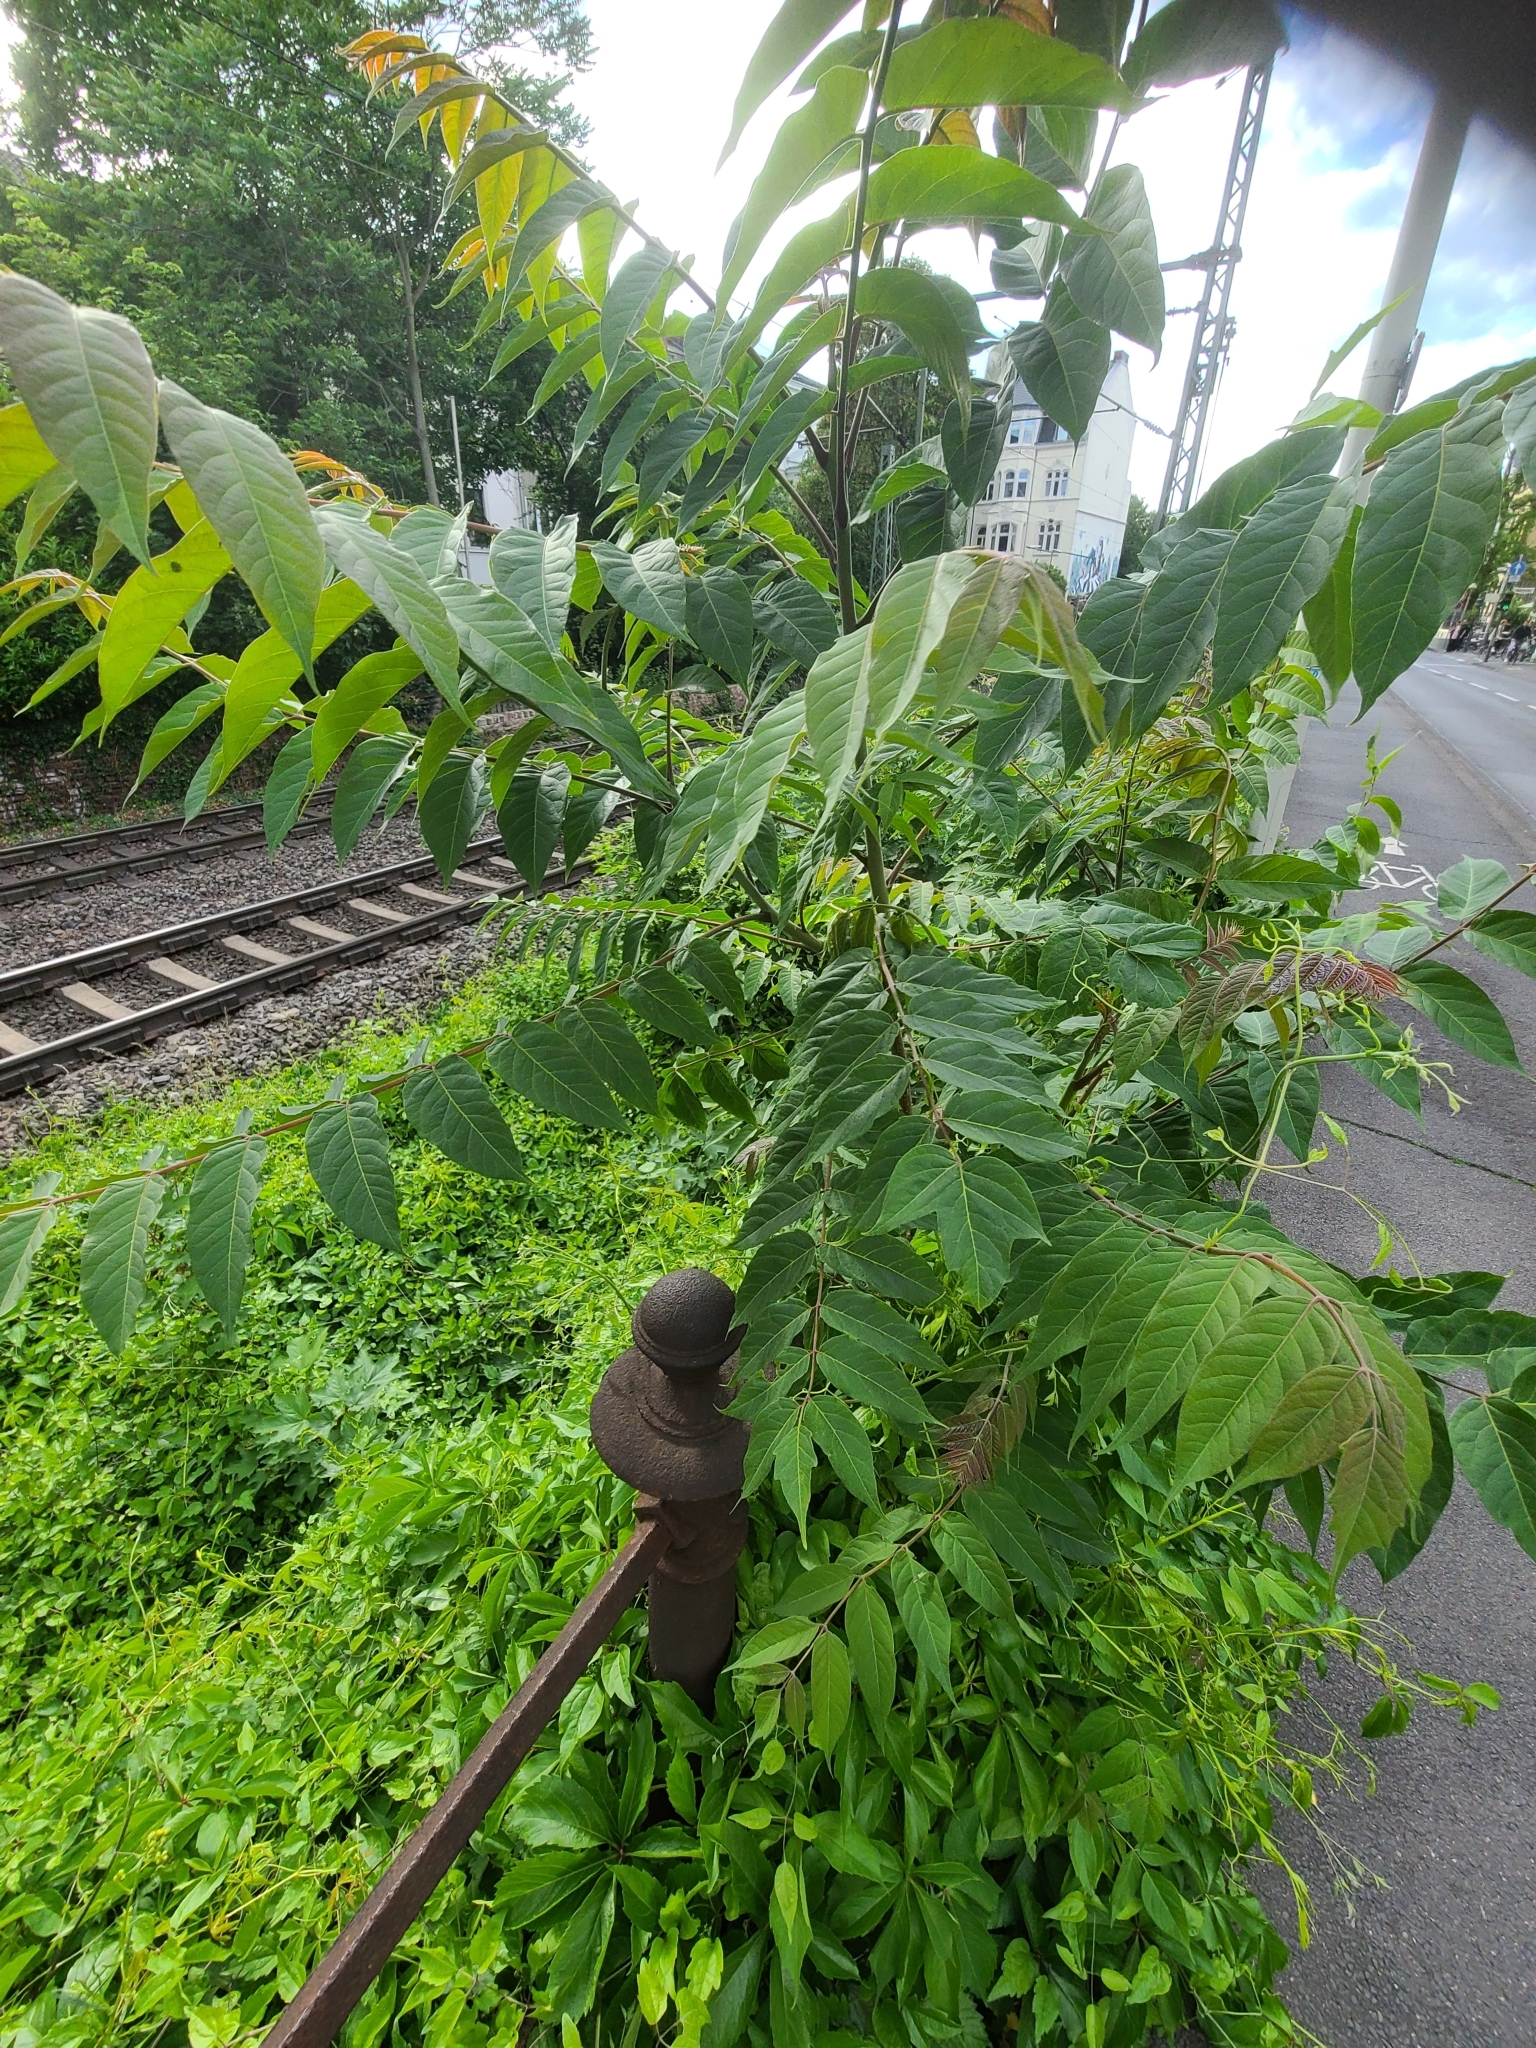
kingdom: Plantae
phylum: Tracheophyta
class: Magnoliopsida
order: Sapindales
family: Simaroubaceae
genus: Ailanthus
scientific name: Ailanthus altissima
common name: Tree-of-heaven
